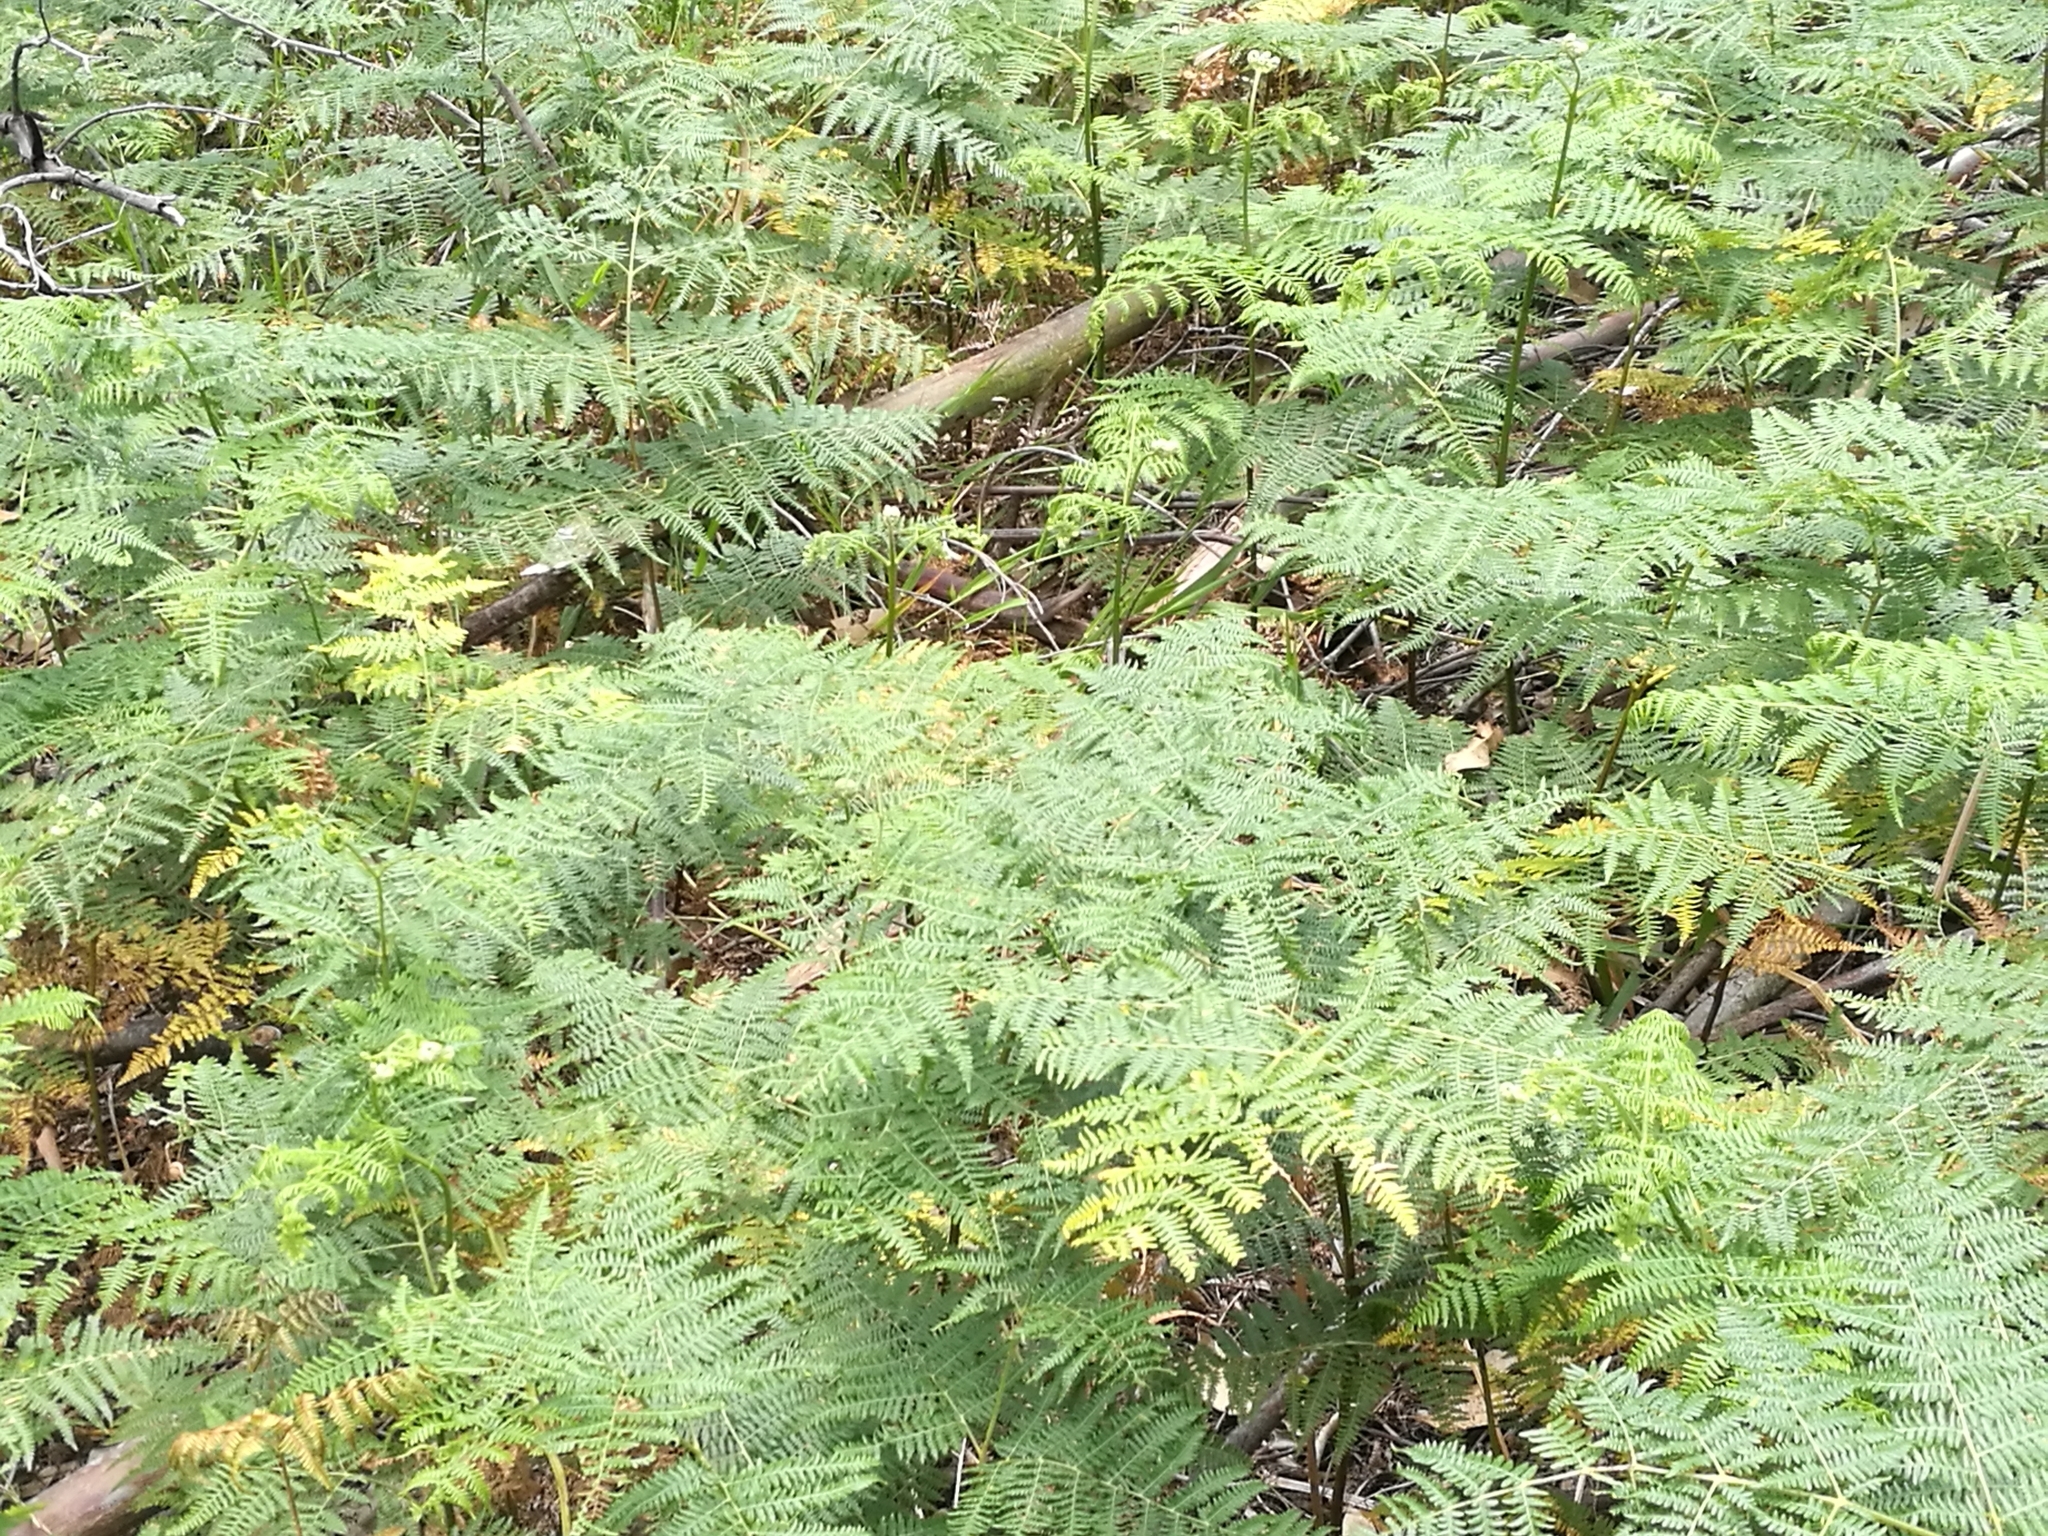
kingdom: Plantae
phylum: Tracheophyta
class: Polypodiopsida
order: Polypodiales
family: Dennstaedtiaceae
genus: Pteridium
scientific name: Pteridium aquilinum
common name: Bracken
